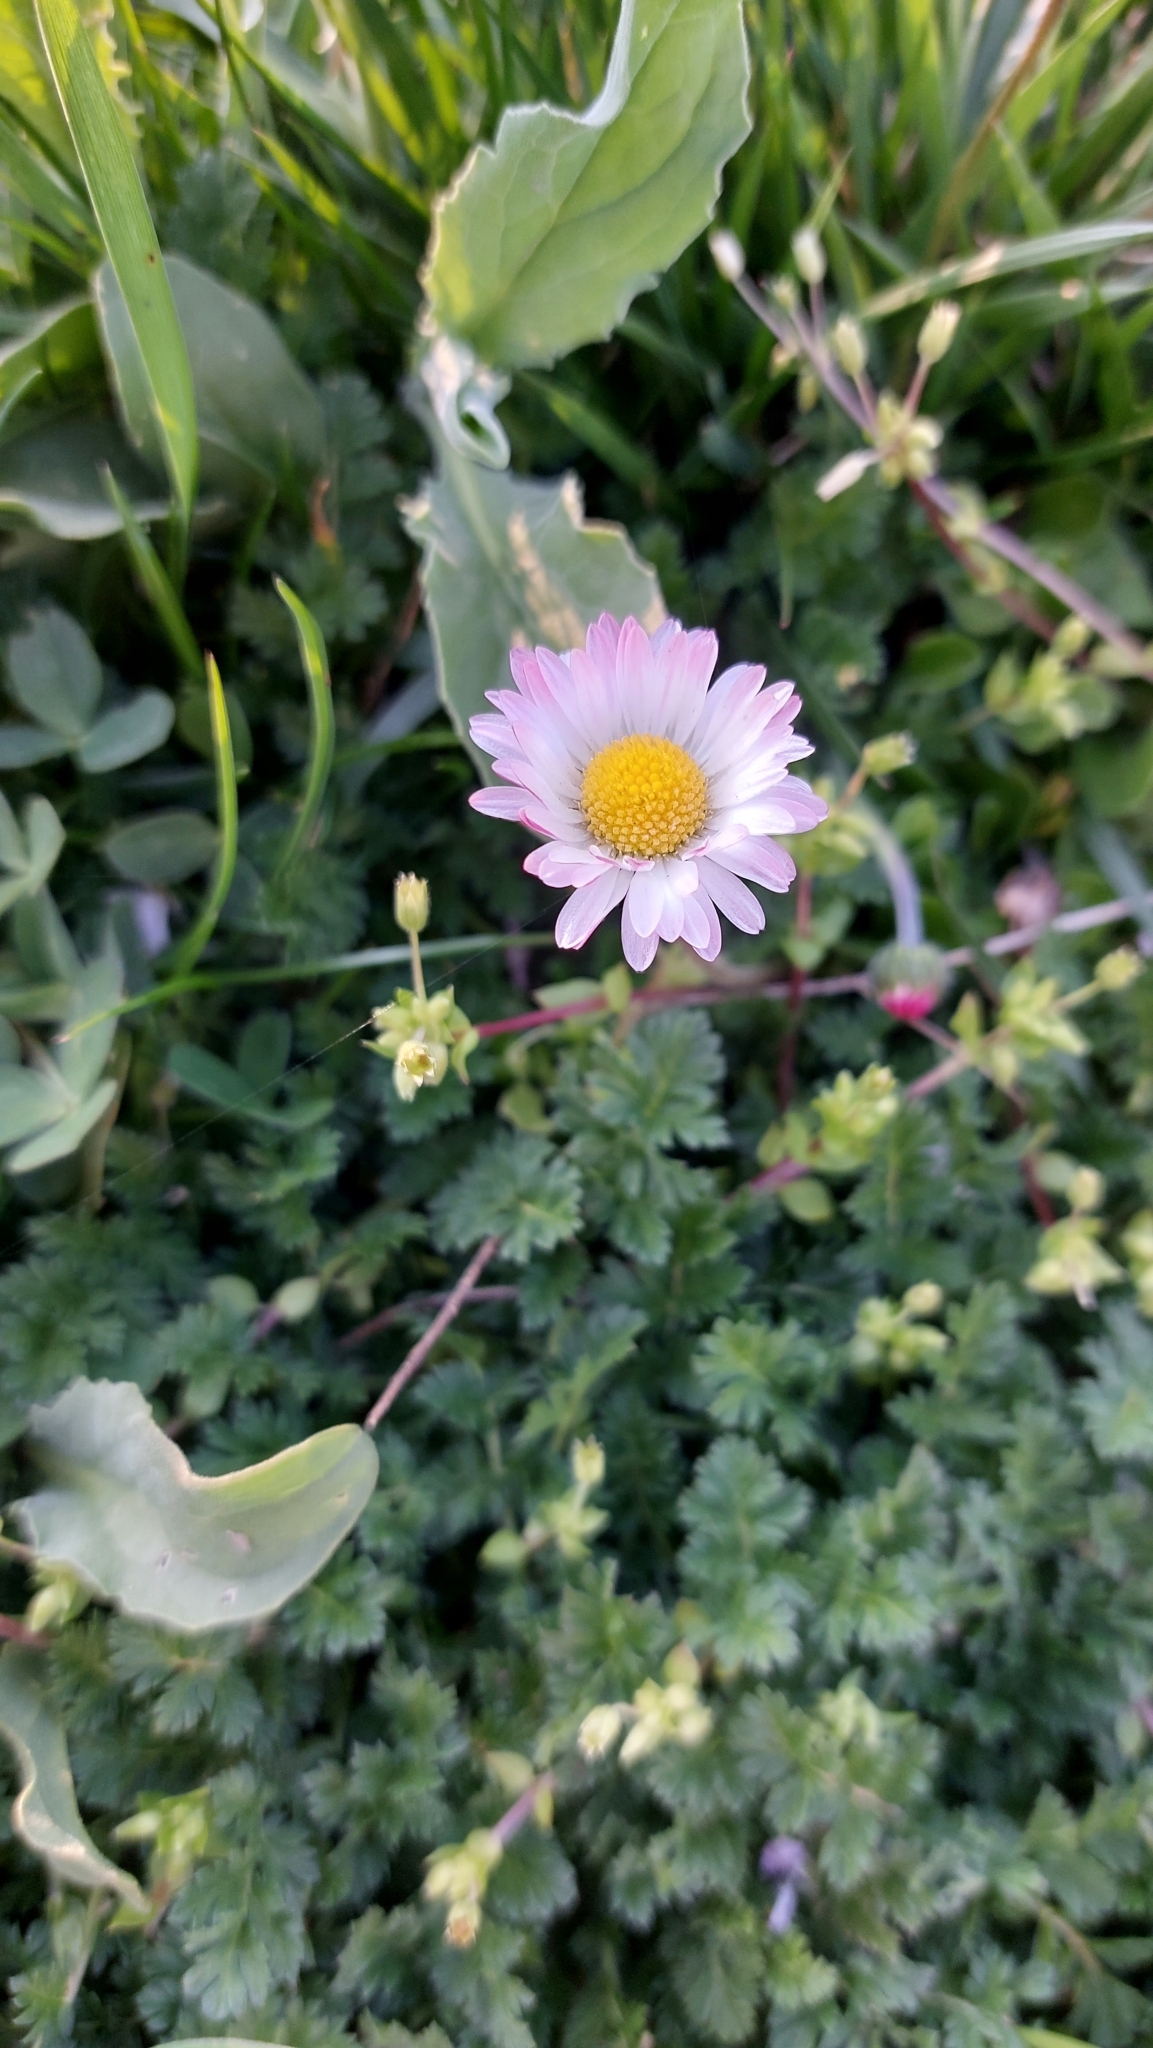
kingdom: Plantae
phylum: Tracheophyta
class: Magnoliopsida
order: Asterales
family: Asteraceae
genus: Bellis
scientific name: Bellis perennis
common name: Lawndaisy
